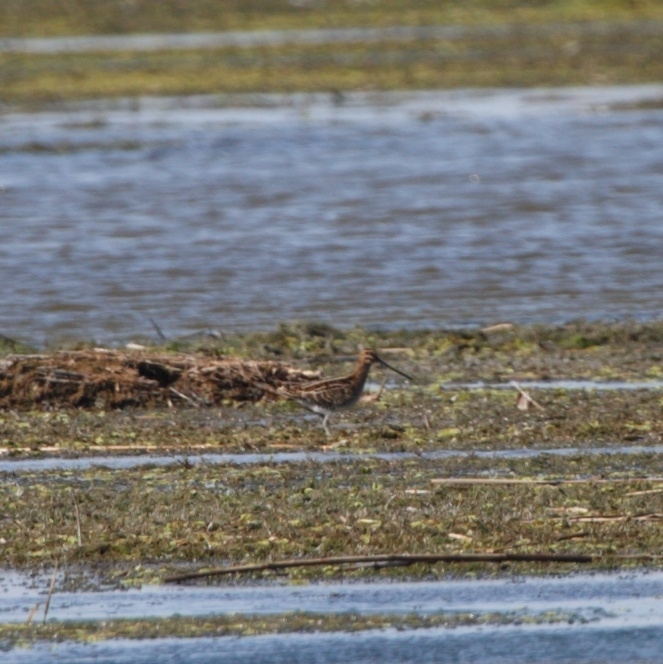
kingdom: Animalia
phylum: Chordata
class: Aves
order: Charadriiformes
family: Scolopacidae
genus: Gallinago
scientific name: Gallinago gallinago
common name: Common snipe
